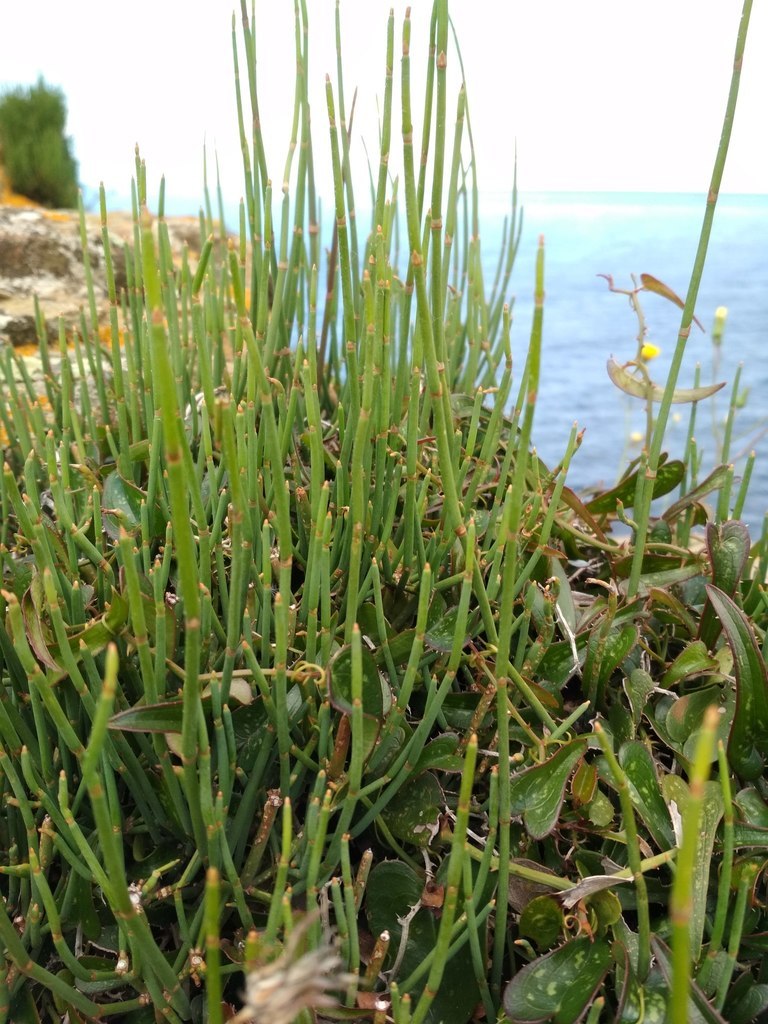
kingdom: Plantae
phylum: Tracheophyta
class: Gnetopsida
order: Ephedrales
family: Ephedraceae
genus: Ephedra
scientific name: Ephedra fragilis
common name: Joint pine
